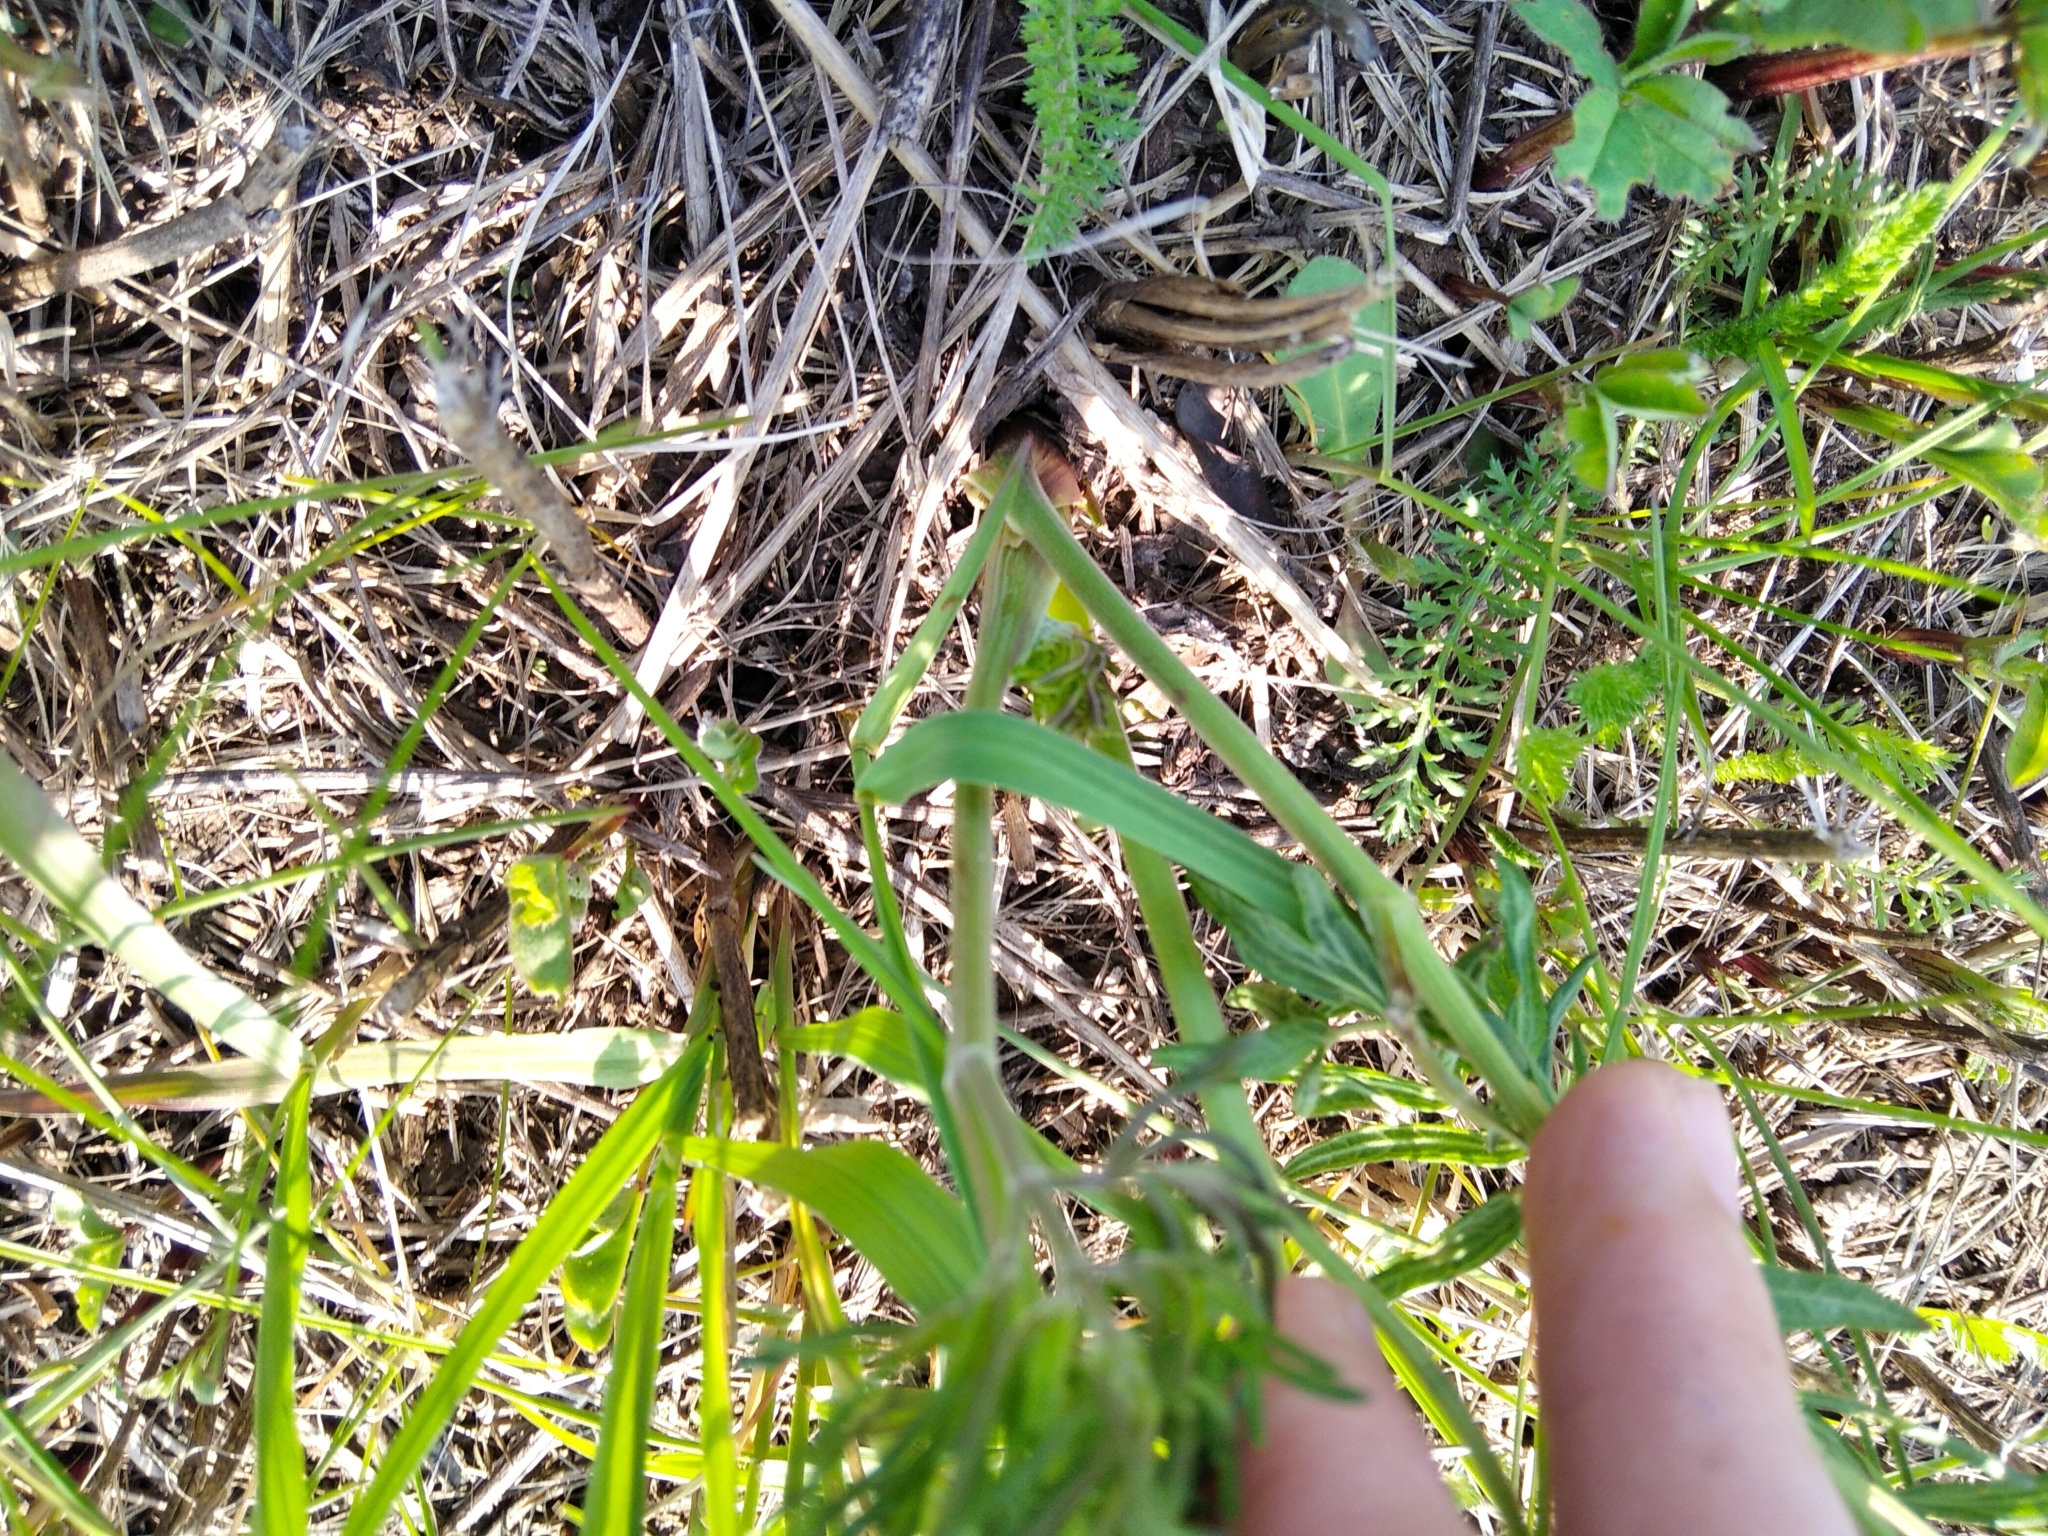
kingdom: Plantae
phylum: Tracheophyta
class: Magnoliopsida
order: Ranunculales
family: Ranunculaceae
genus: Thalictrum
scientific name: Thalictrum lucidum
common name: Shining meadow-rue
